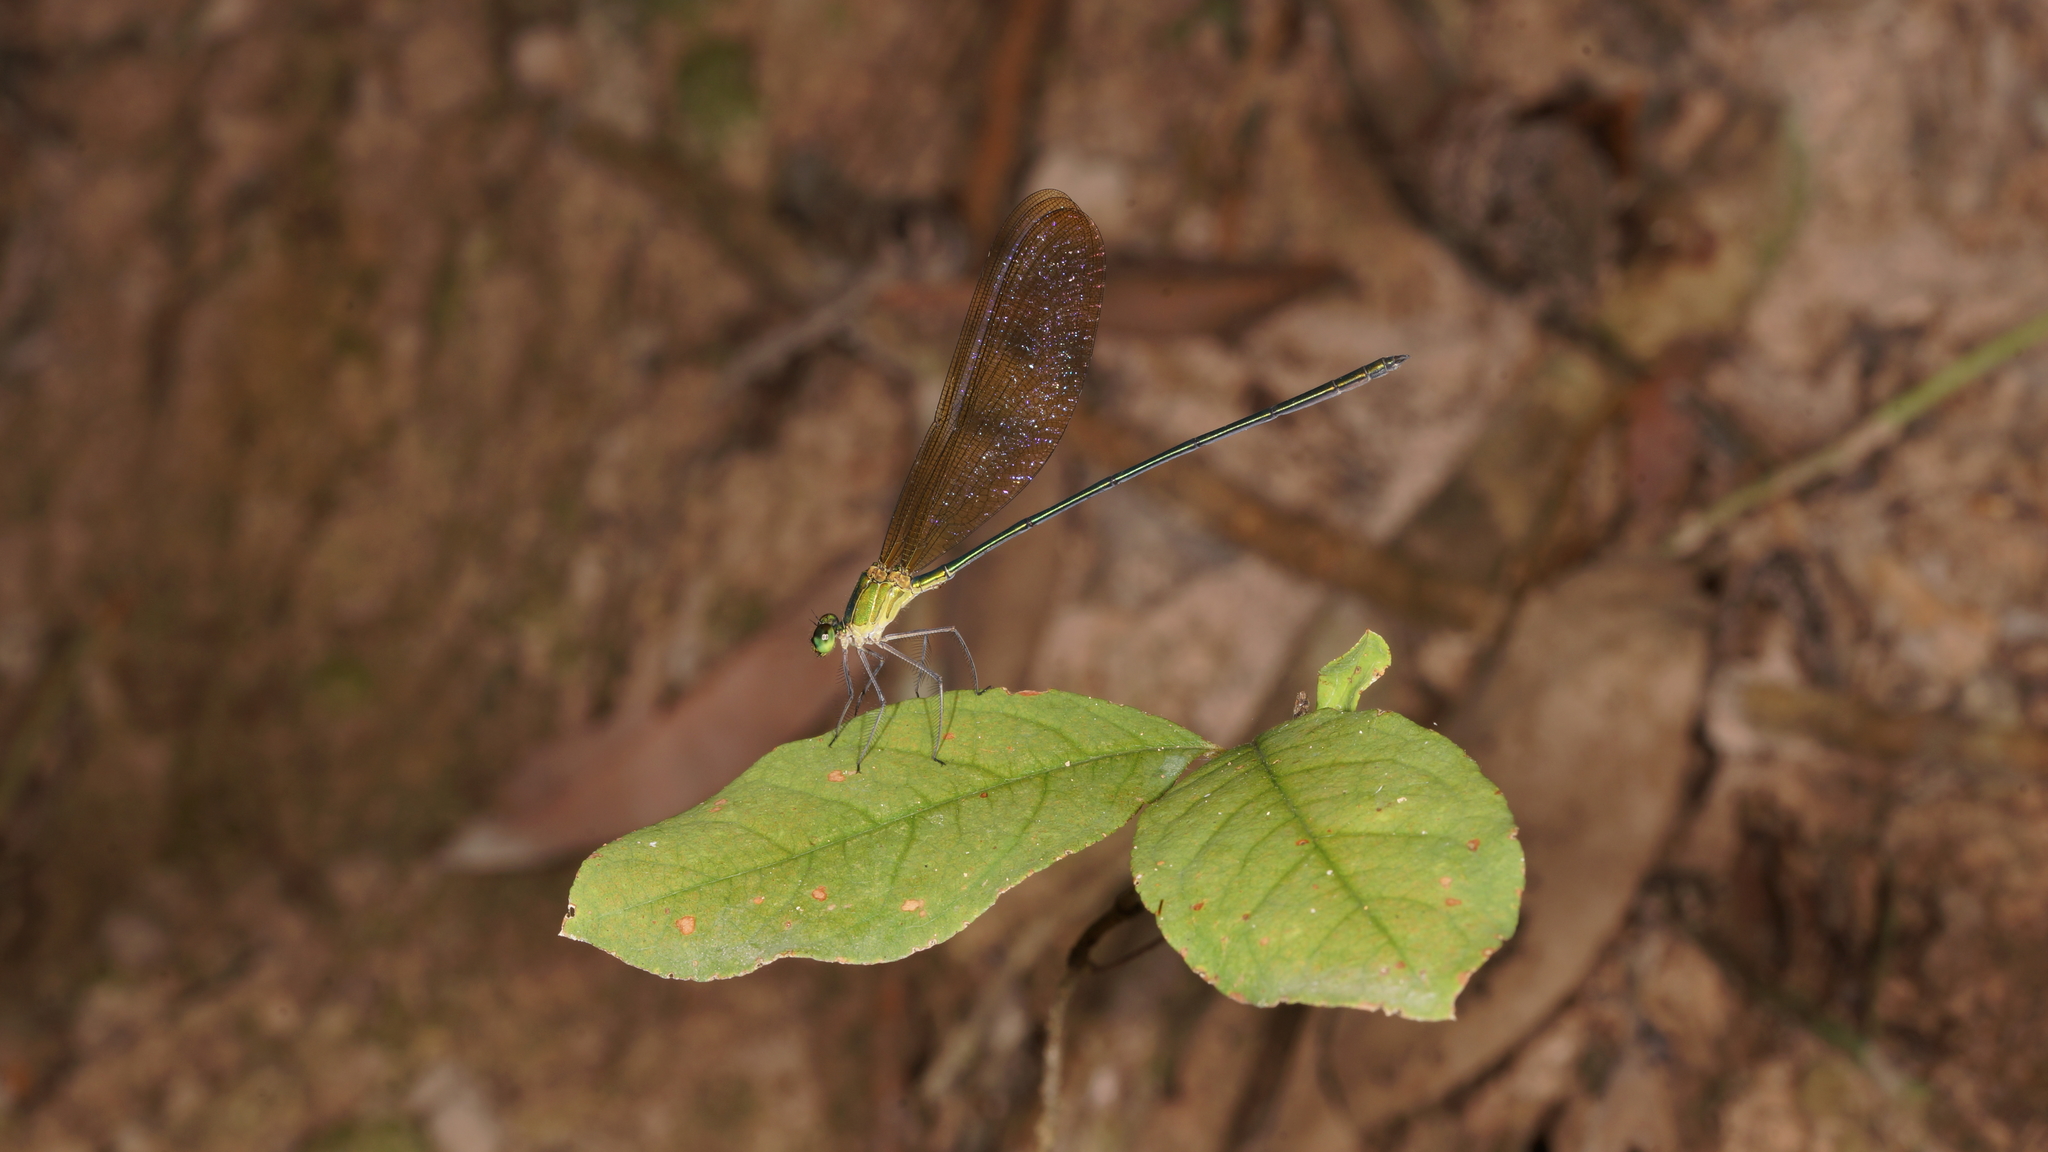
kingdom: Animalia
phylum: Arthropoda
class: Insecta
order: Odonata
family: Calopterygidae
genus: Vestalis
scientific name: Vestalis gracilis
